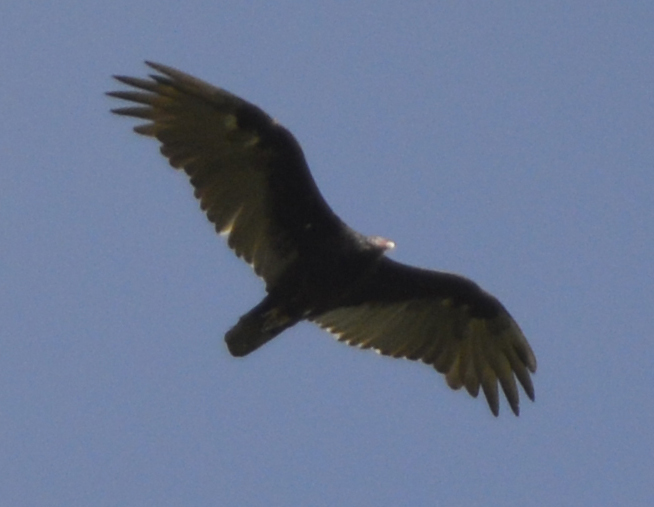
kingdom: Animalia
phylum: Chordata
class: Aves
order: Accipitriformes
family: Cathartidae
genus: Cathartes
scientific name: Cathartes aura
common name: Turkey vulture
